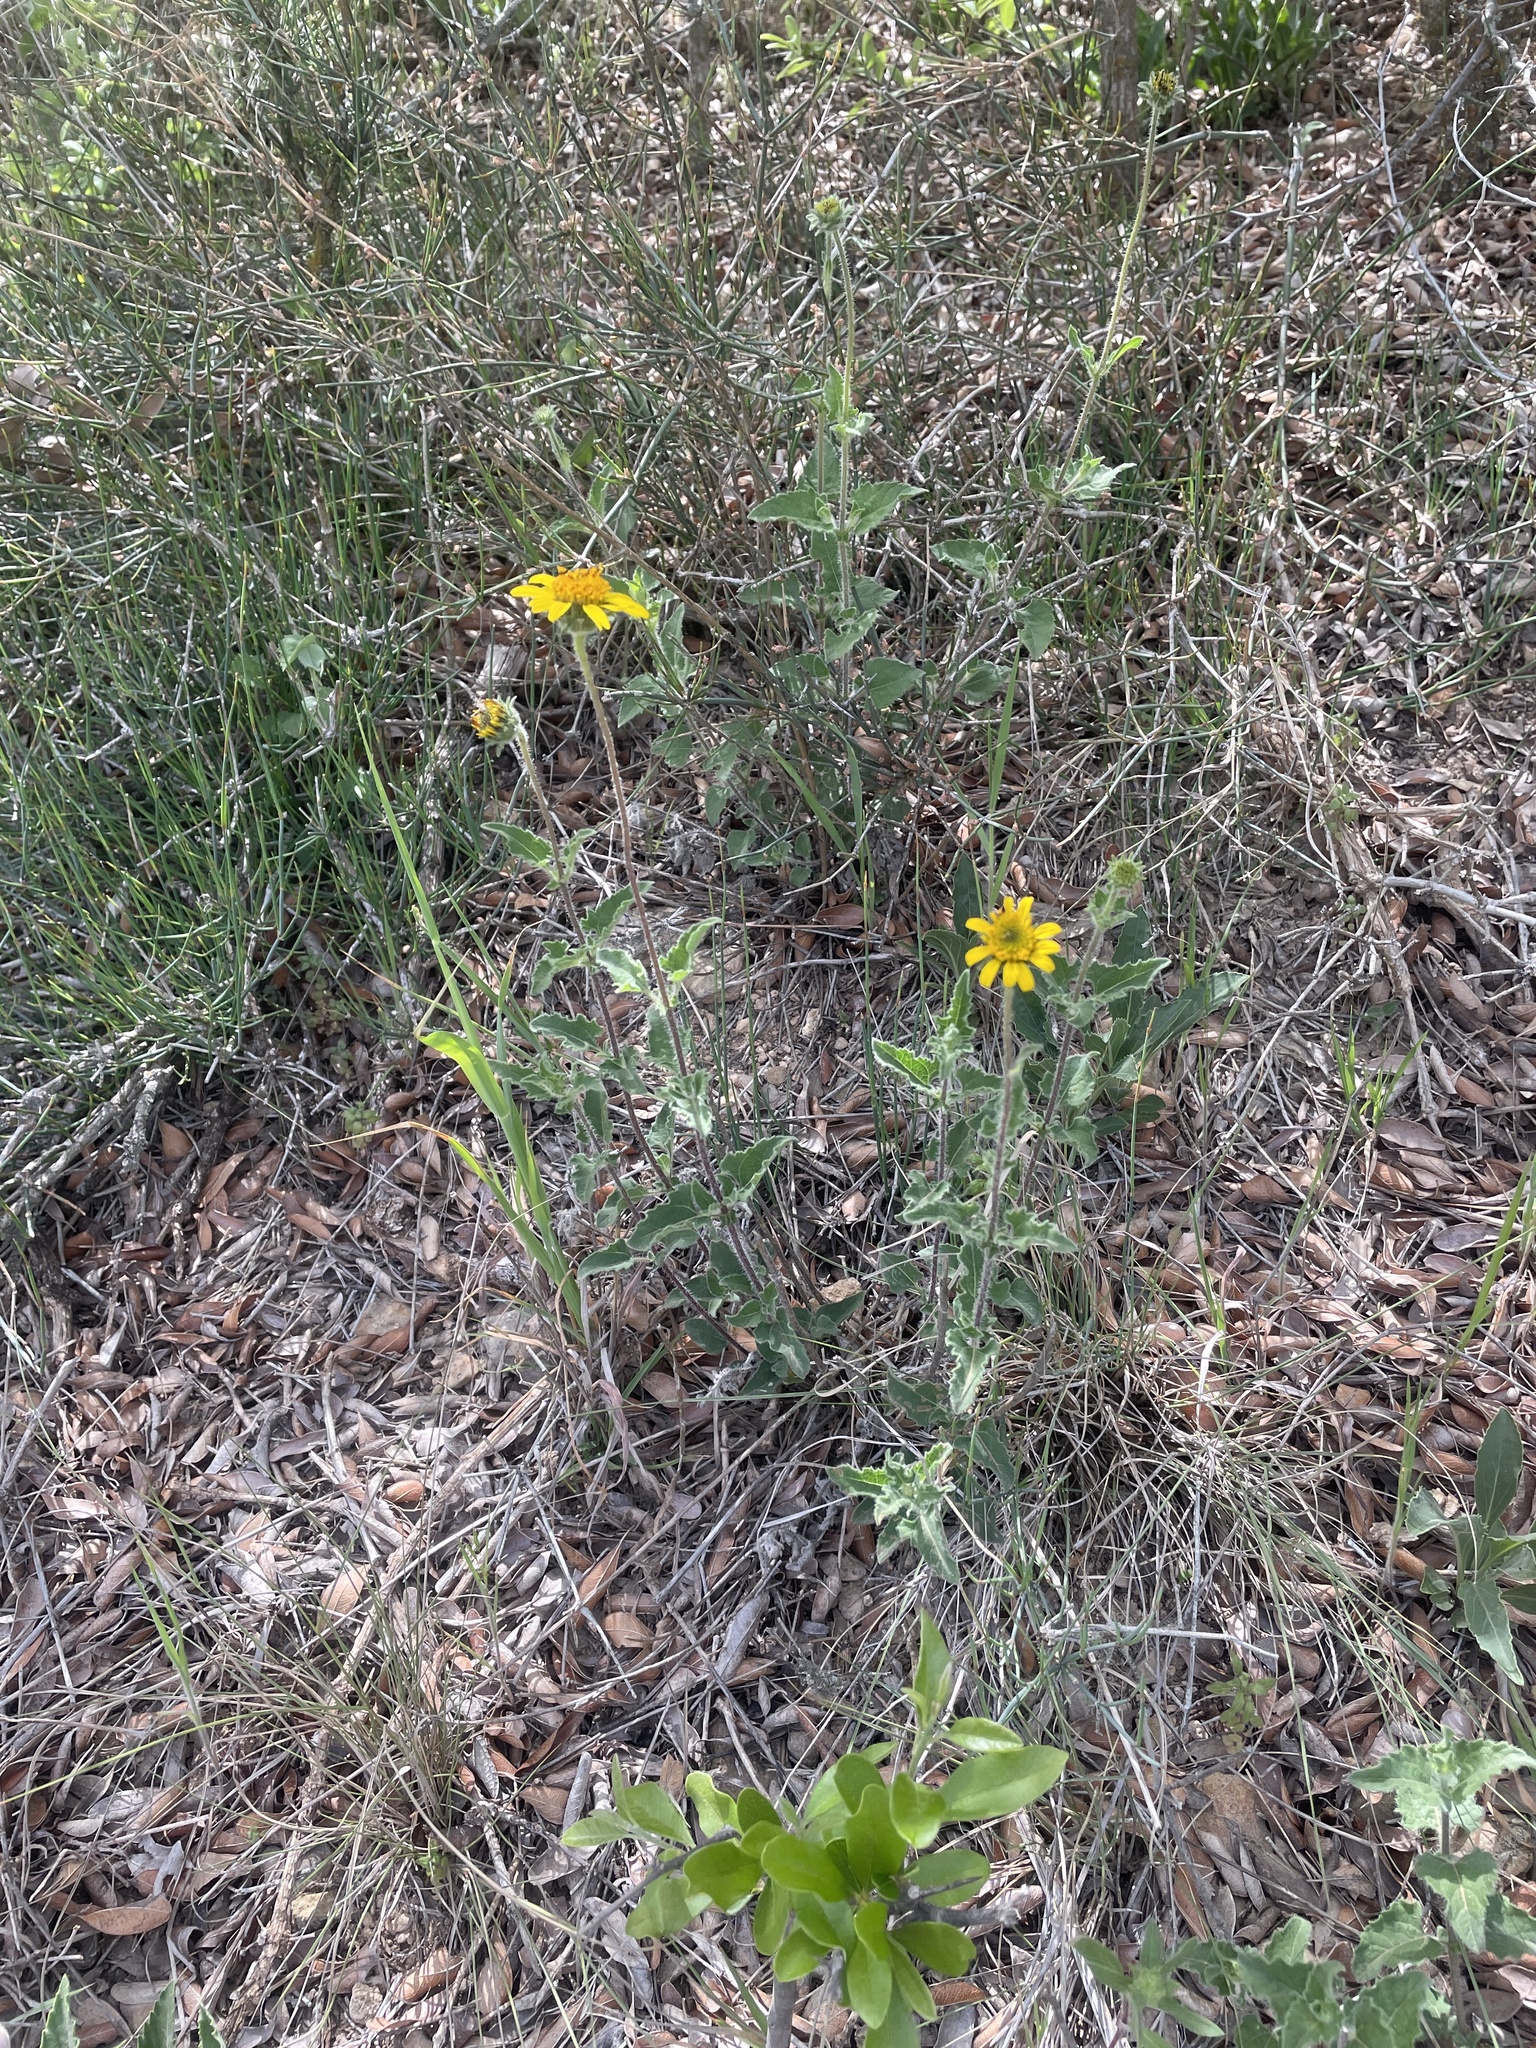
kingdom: Plantae
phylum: Tracheophyta
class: Magnoliopsida
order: Asterales
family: Asteraceae
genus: Simsia
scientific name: Simsia calva
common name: Awnless bush-sunflower
